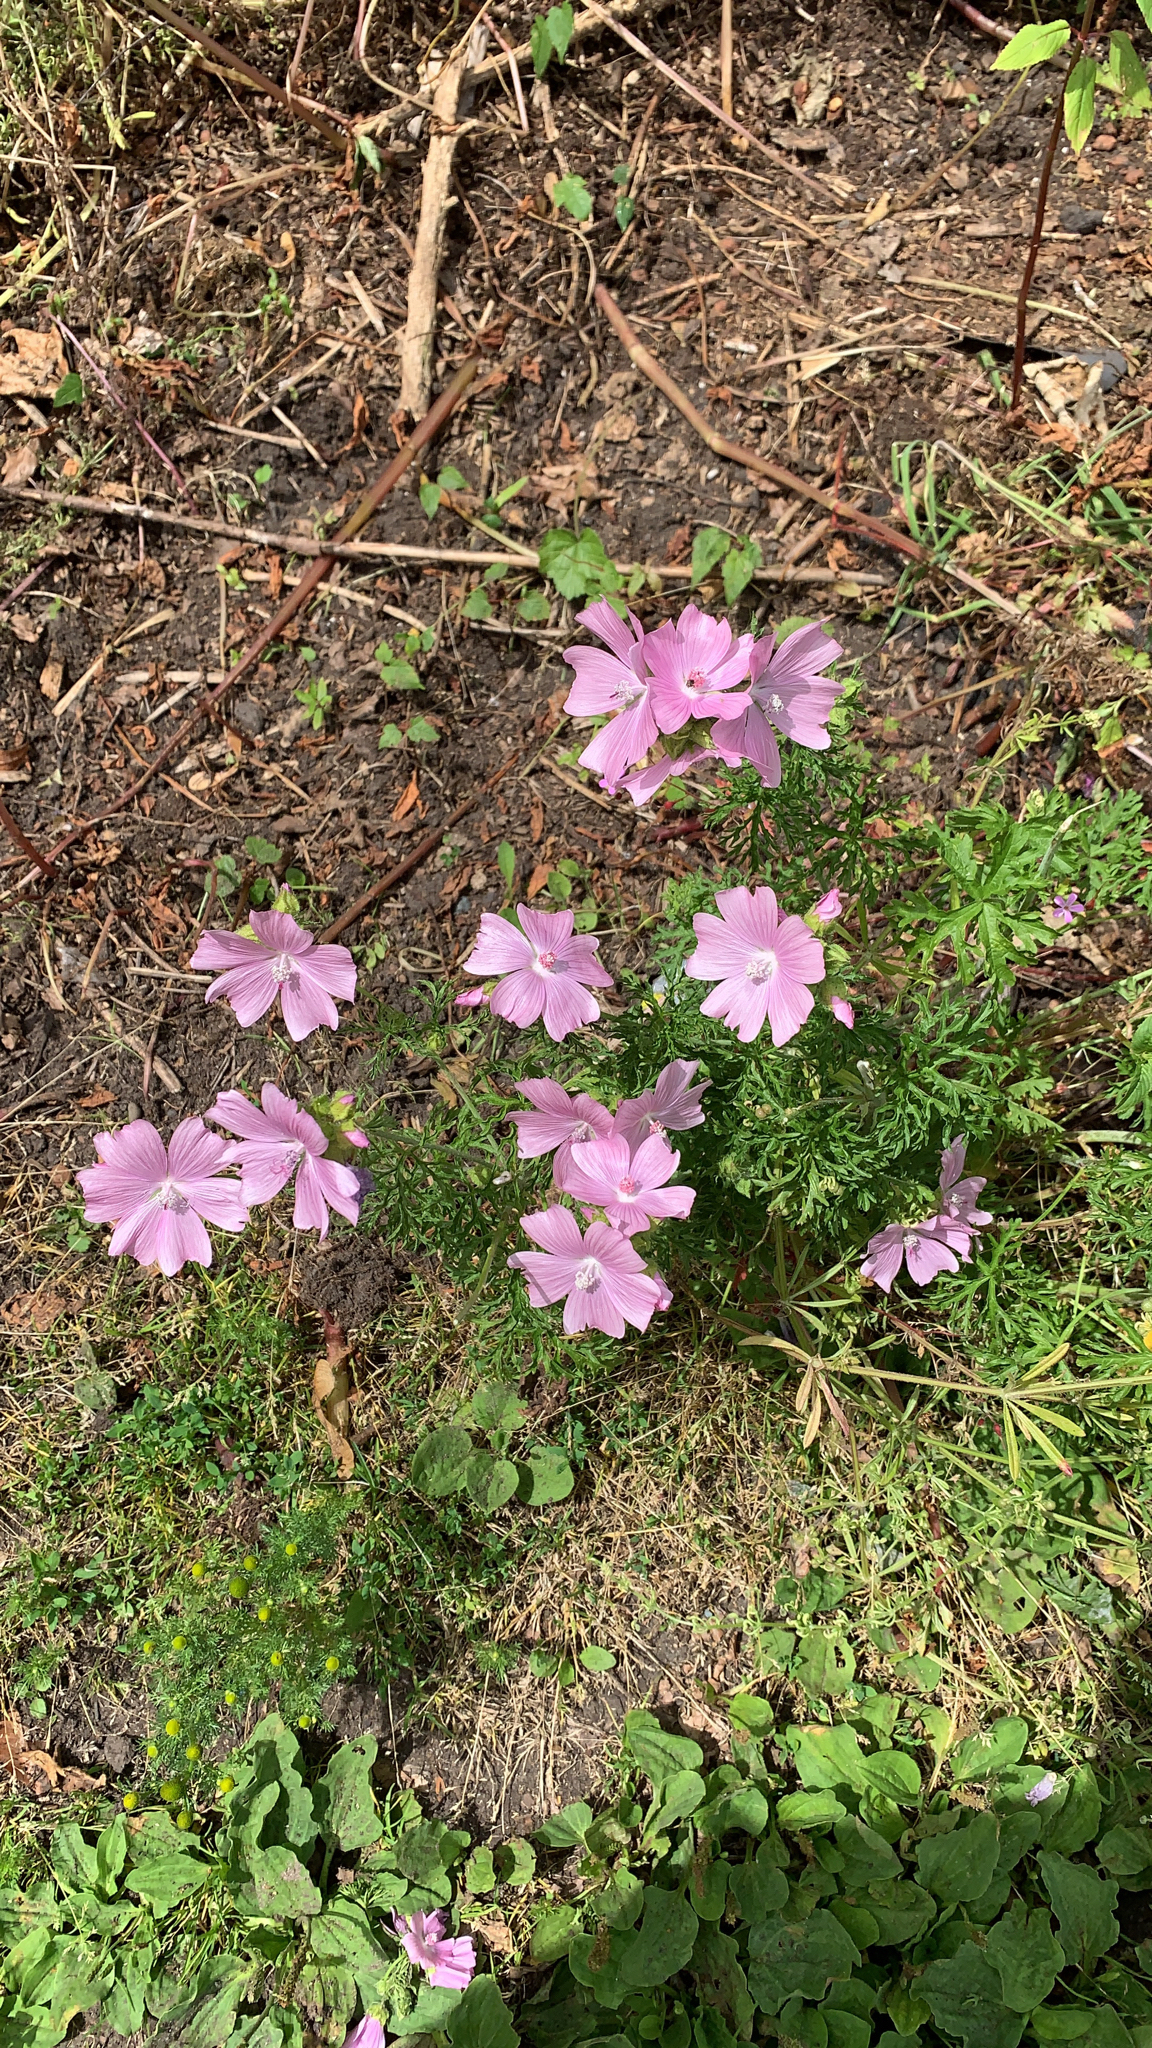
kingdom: Plantae
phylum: Tracheophyta
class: Magnoliopsida
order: Malvales
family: Malvaceae
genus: Malva
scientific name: Malva moschata
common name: Musk mallow
